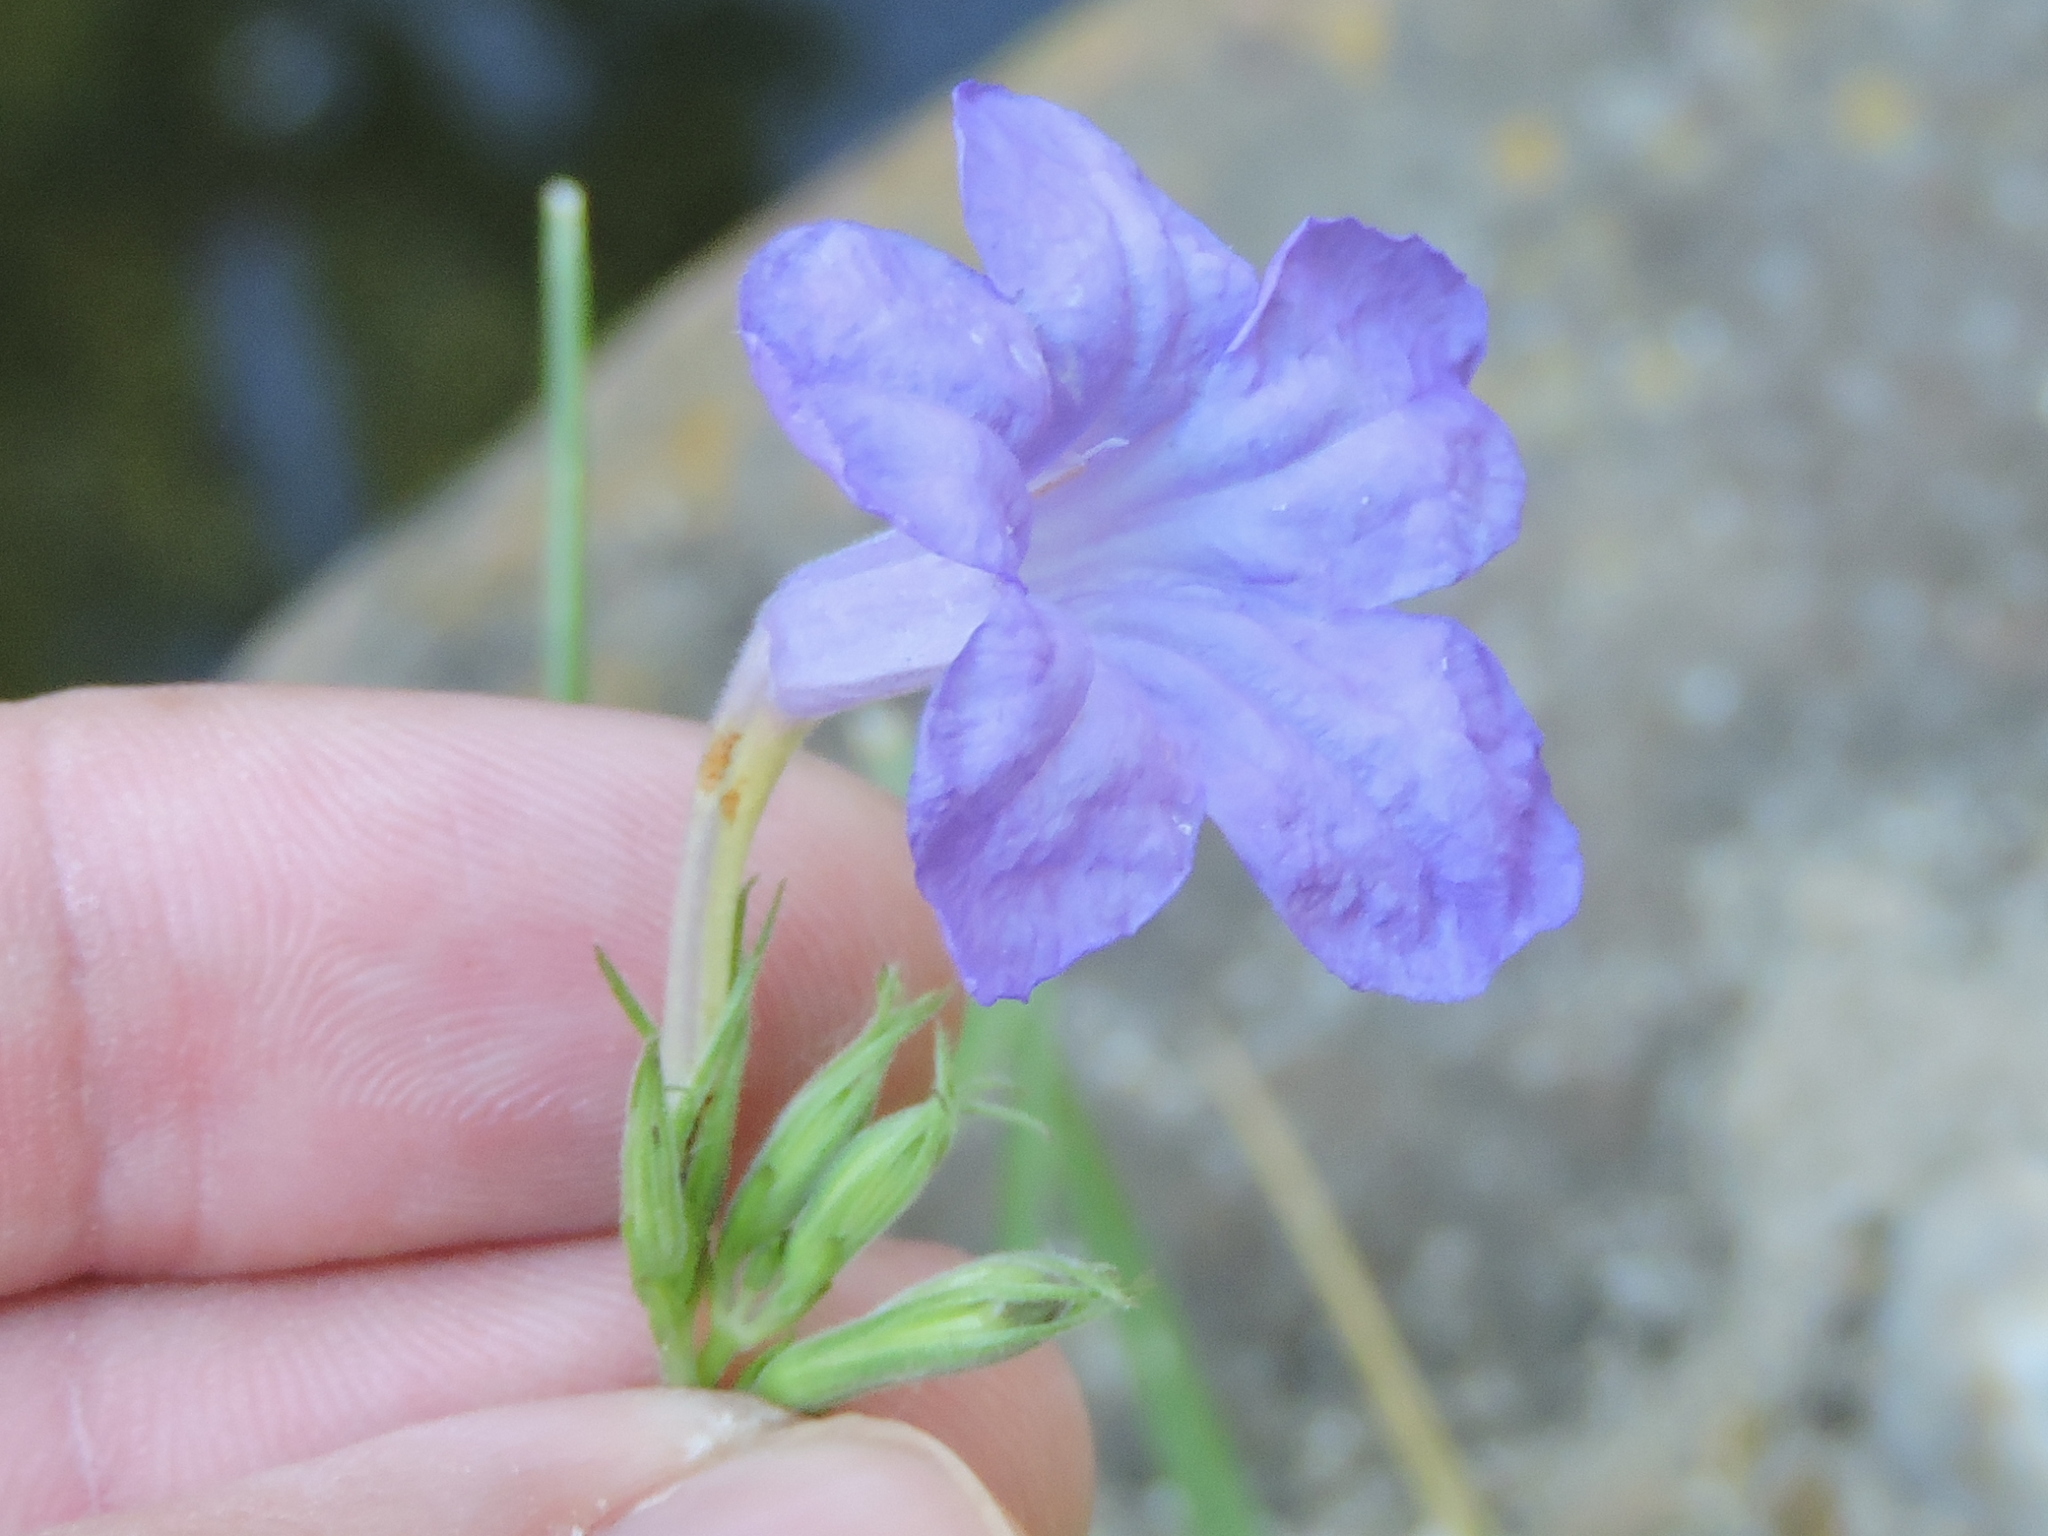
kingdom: Plantae
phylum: Tracheophyta
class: Magnoliopsida
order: Lamiales
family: Acanthaceae
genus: Ruellia
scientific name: Ruellia ciliatiflora
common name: Hairyflower wild petunia
